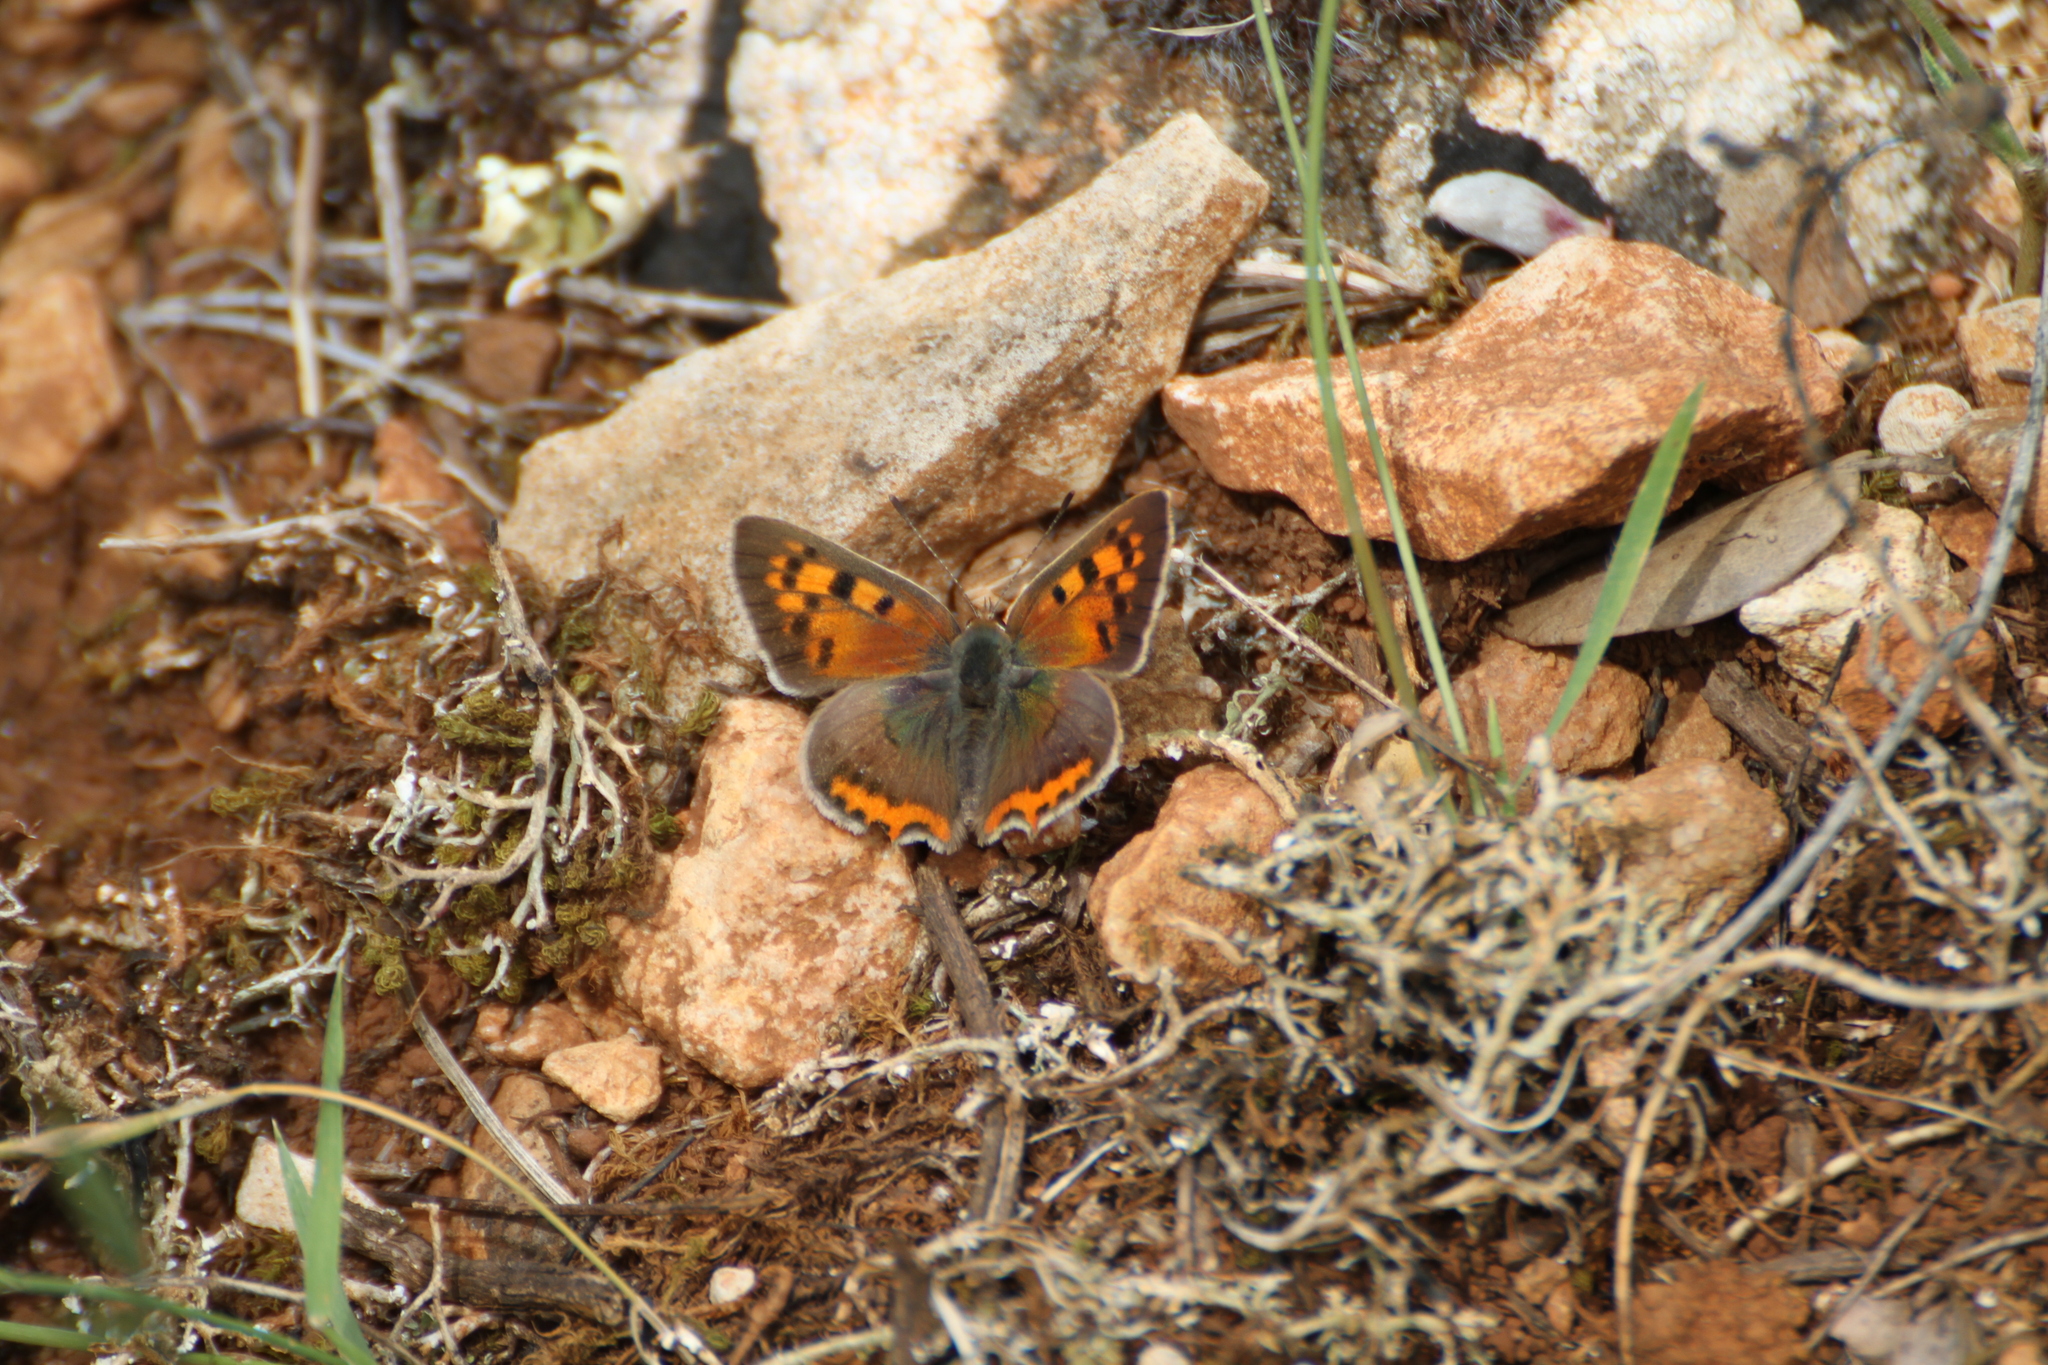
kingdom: Animalia
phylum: Arthropoda
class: Insecta
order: Lepidoptera
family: Lycaenidae
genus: Lycaena
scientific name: Lycaena phlaeas
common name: Small copper
